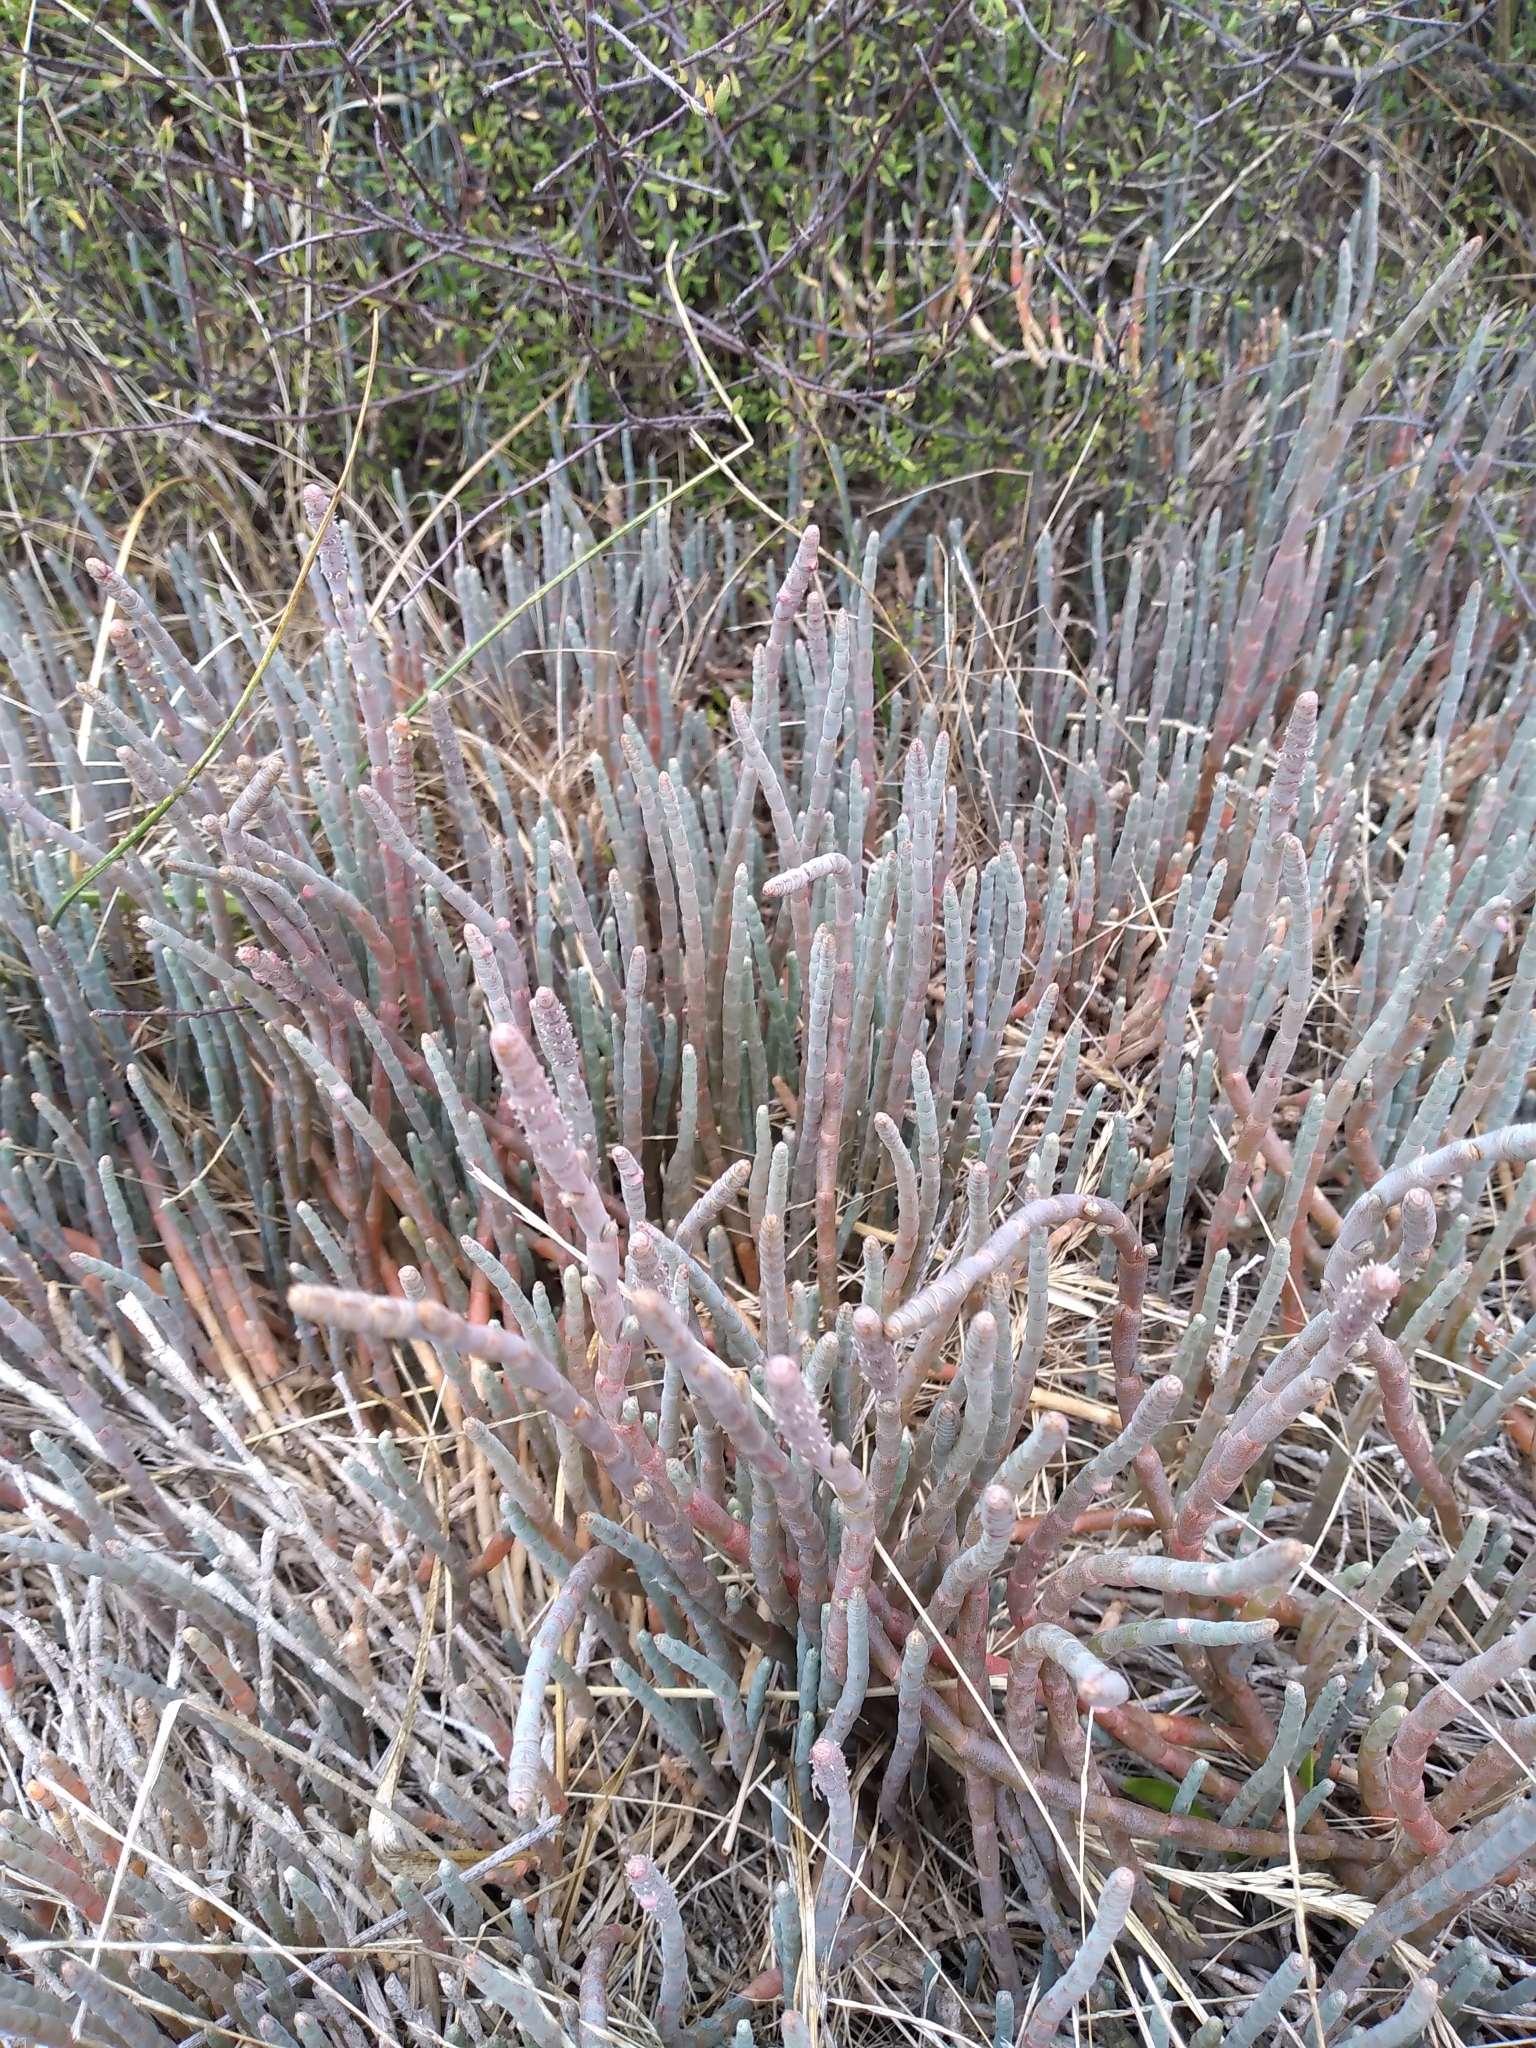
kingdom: Plantae
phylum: Tracheophyta
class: Magnoliopsida
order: Caryophyllales
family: Amaranthaceae
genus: Salicornia
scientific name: Salicornia quinqueflora
